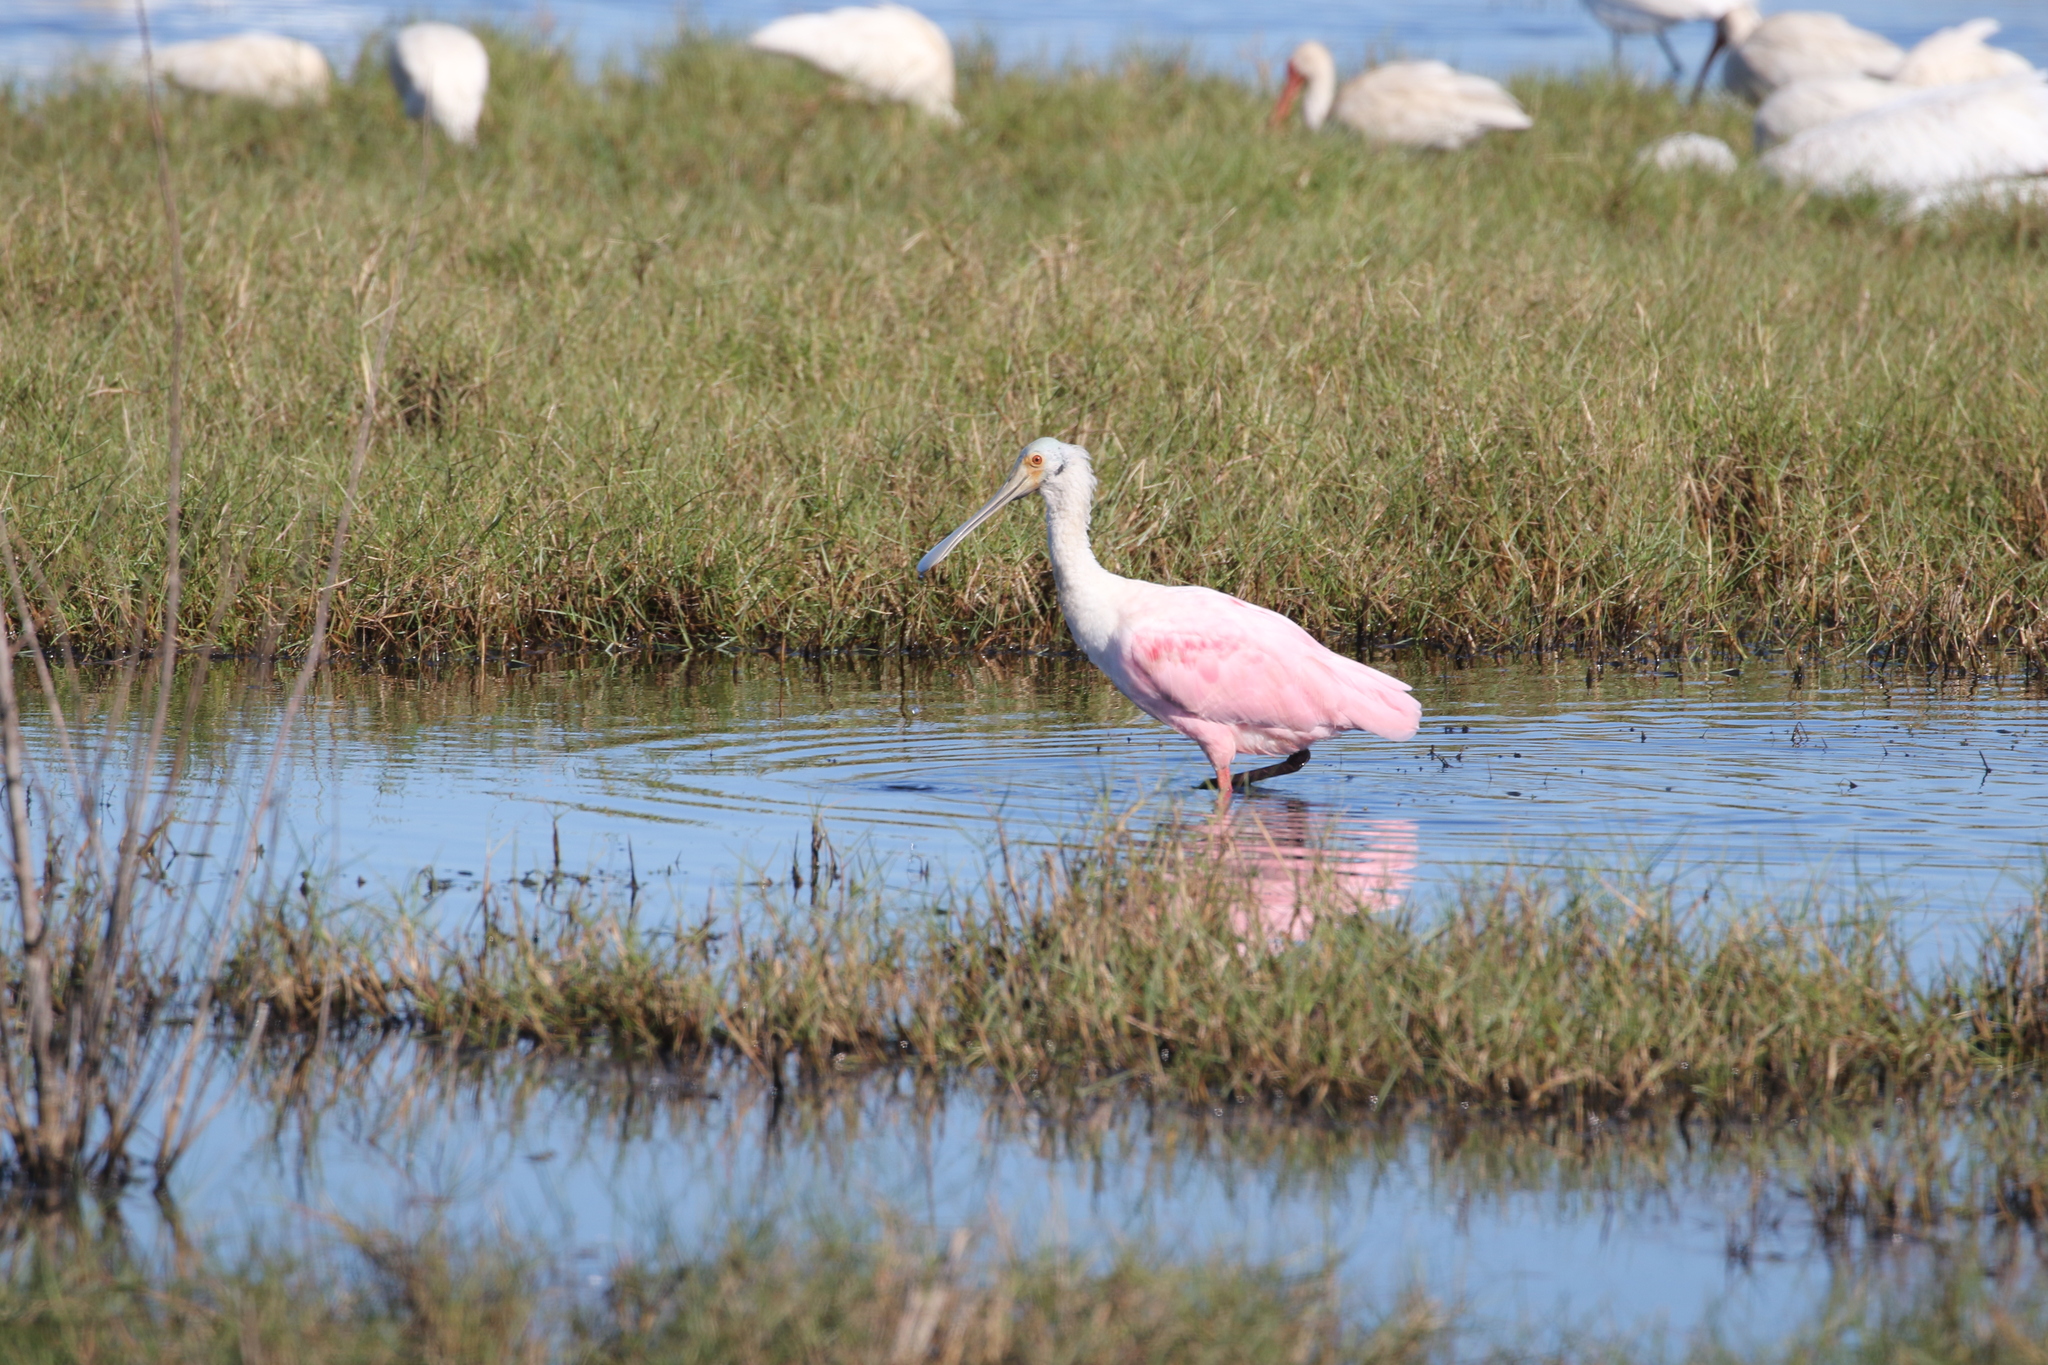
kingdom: Animalia
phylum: Chordata
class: Aves
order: Pelecaniformes
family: Threskiornithidae
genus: Platalea
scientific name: Platalea ajaja
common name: Roseate spoonbill
